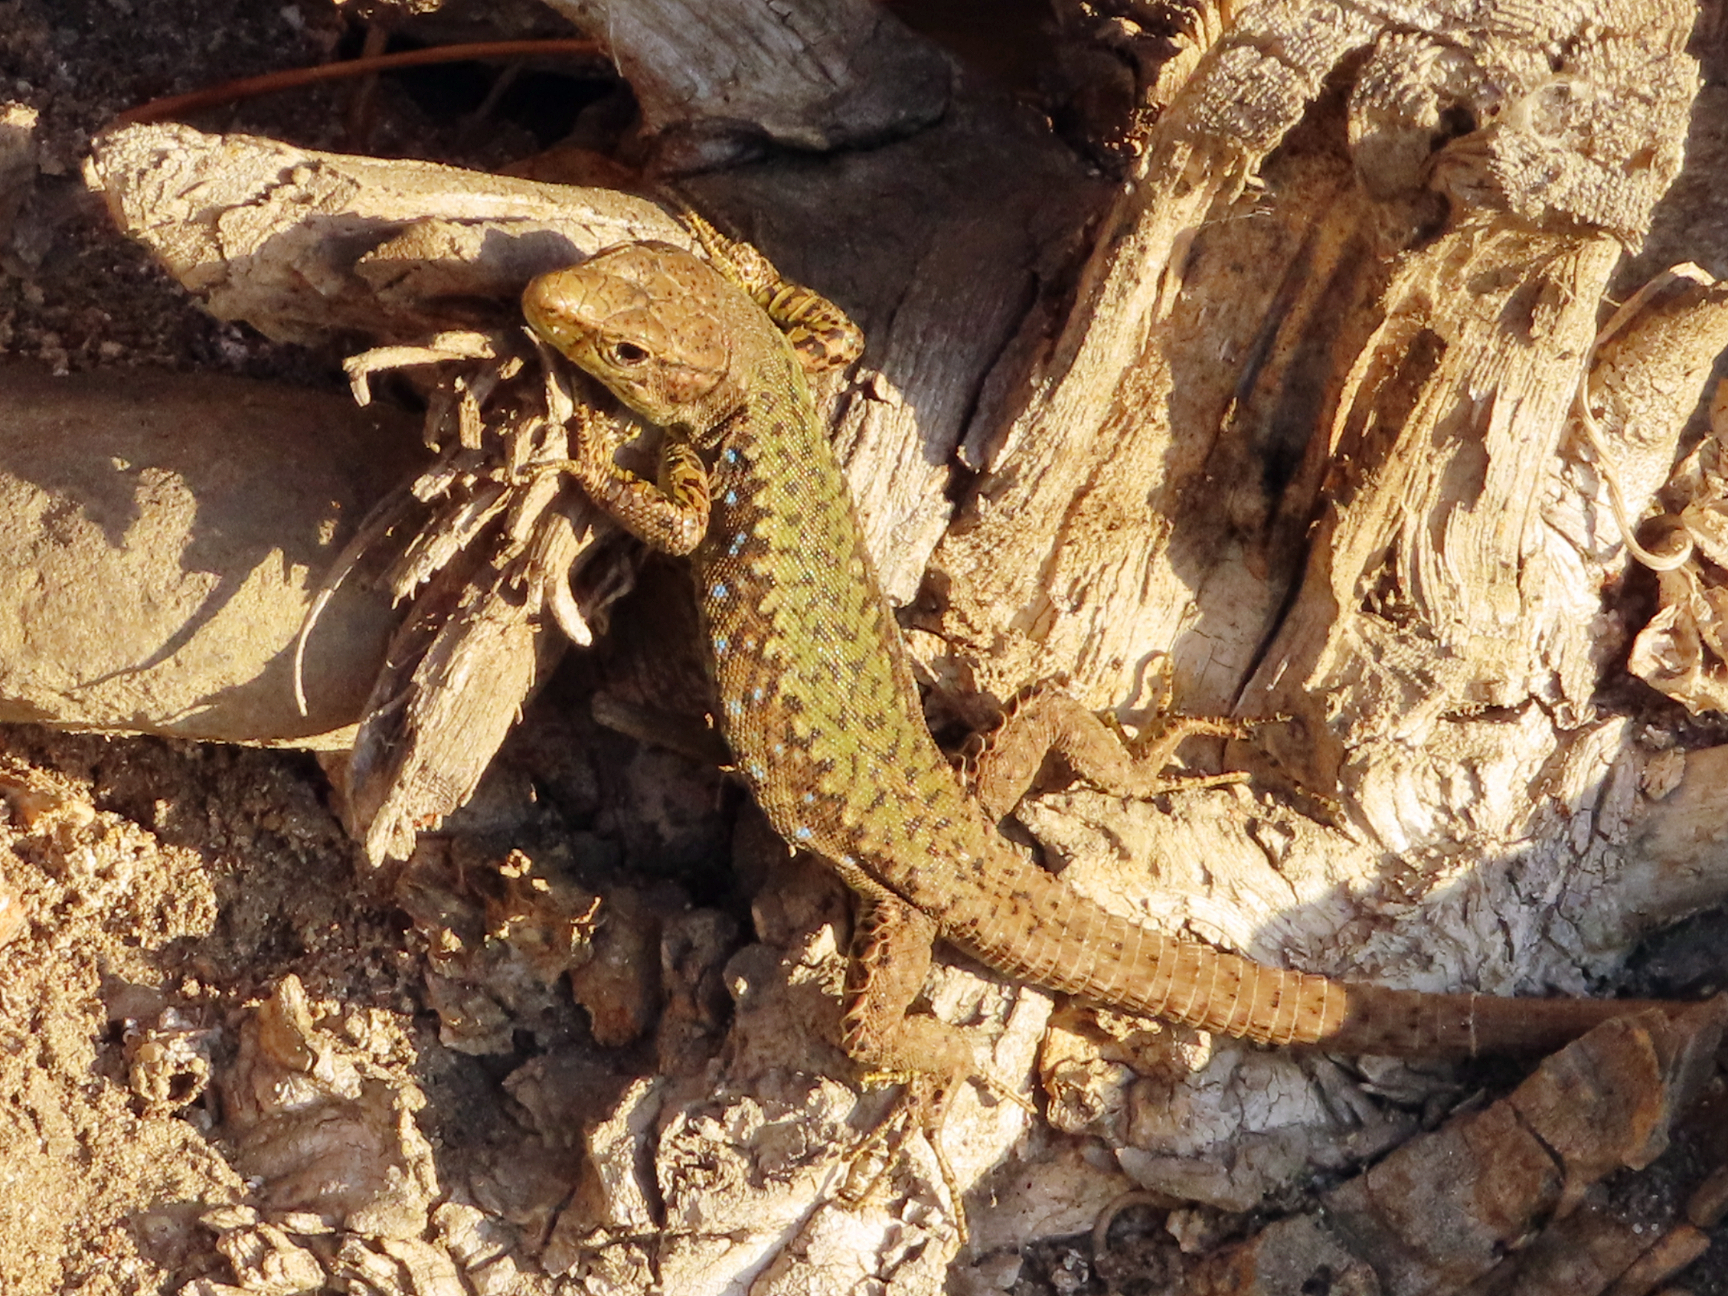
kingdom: Animalia
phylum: Chordata
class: Squamata
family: Lacertidae
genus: Darevskia
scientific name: Darevskia rudis
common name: Spiny-tailed lizard
